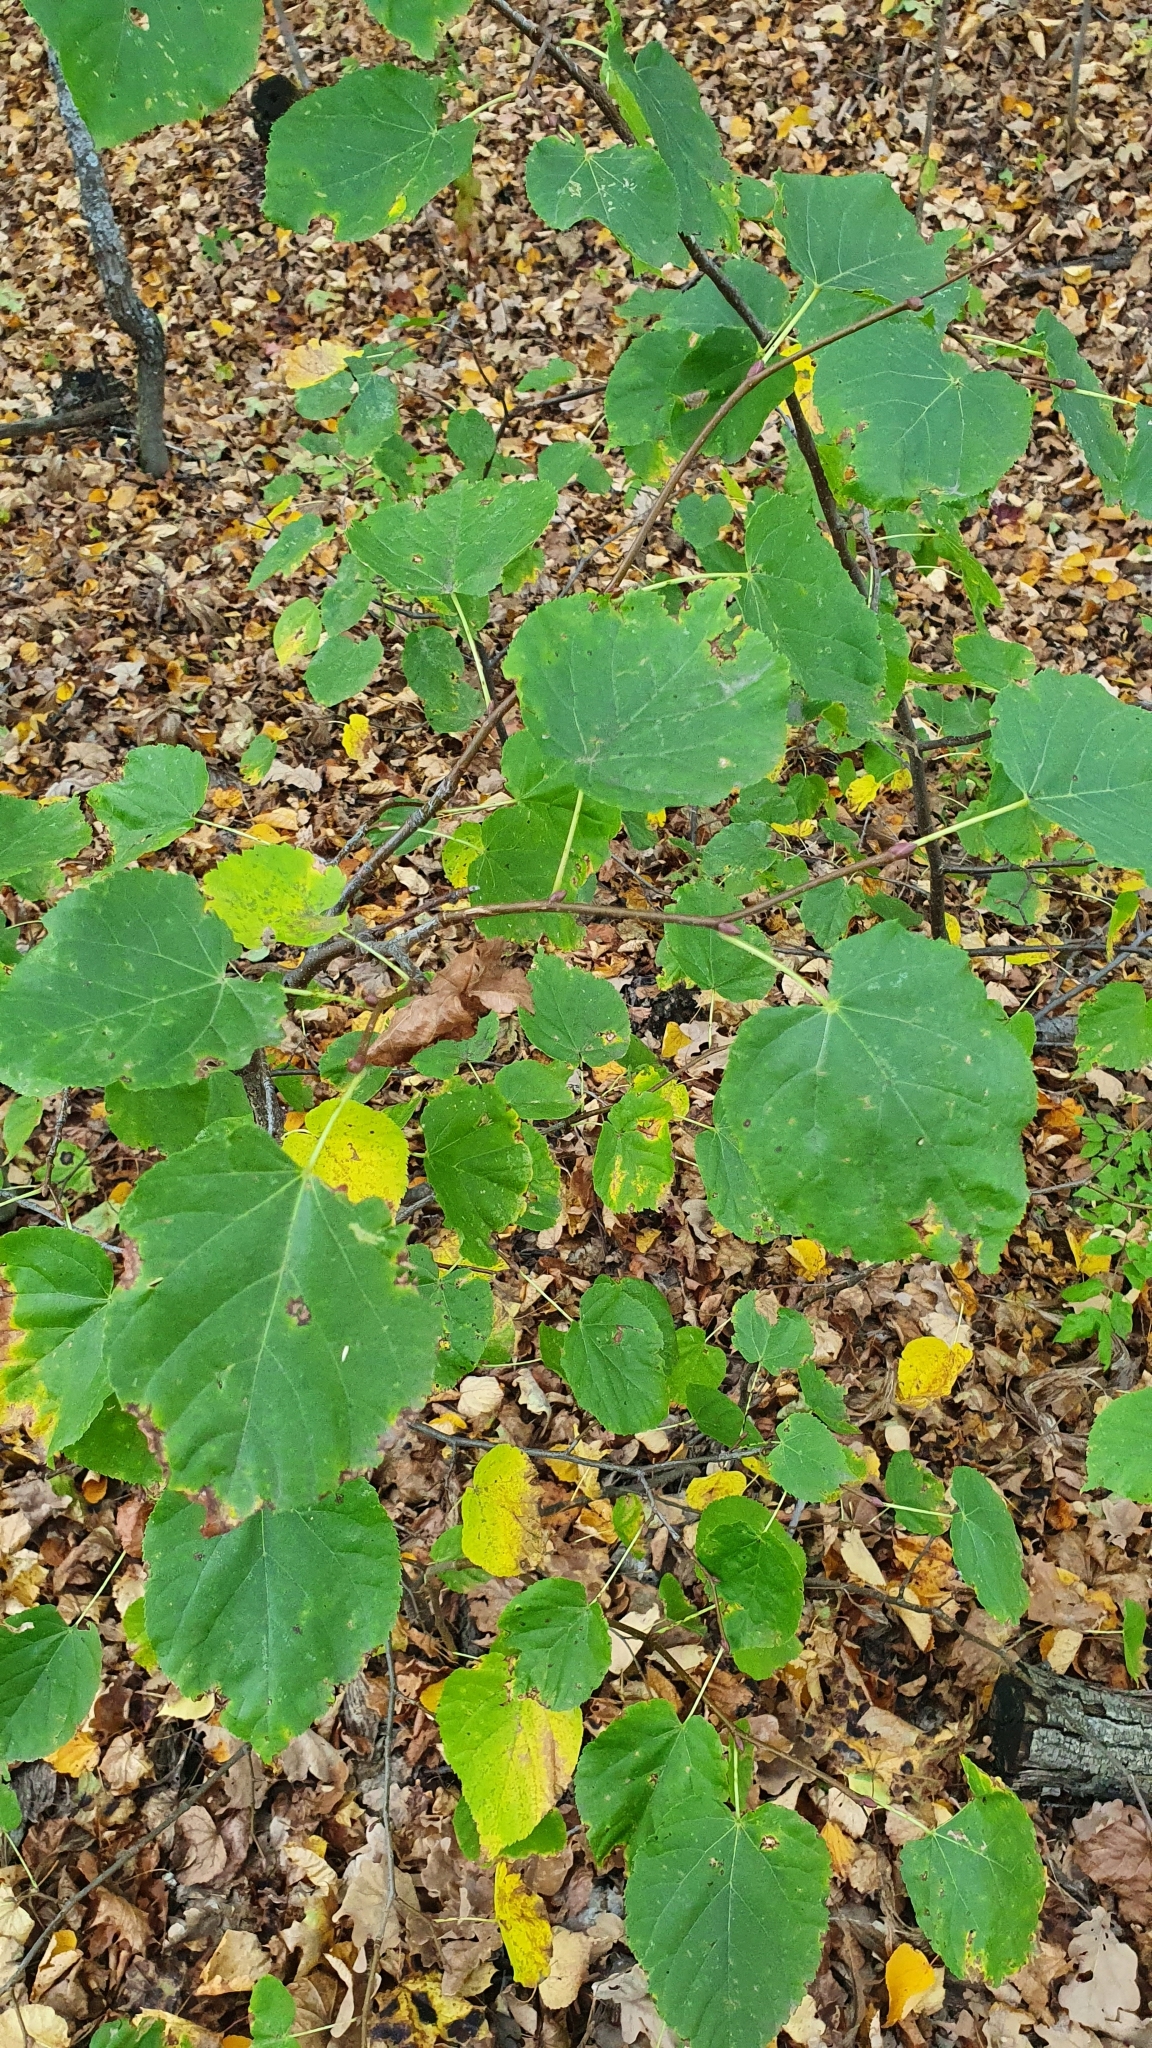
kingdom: Plantae
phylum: Tracheophyta
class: Magnoliopsida
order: Malvales
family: Malvaceae
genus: Tilia
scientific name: Tilia cordata
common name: Small-leaved lime
